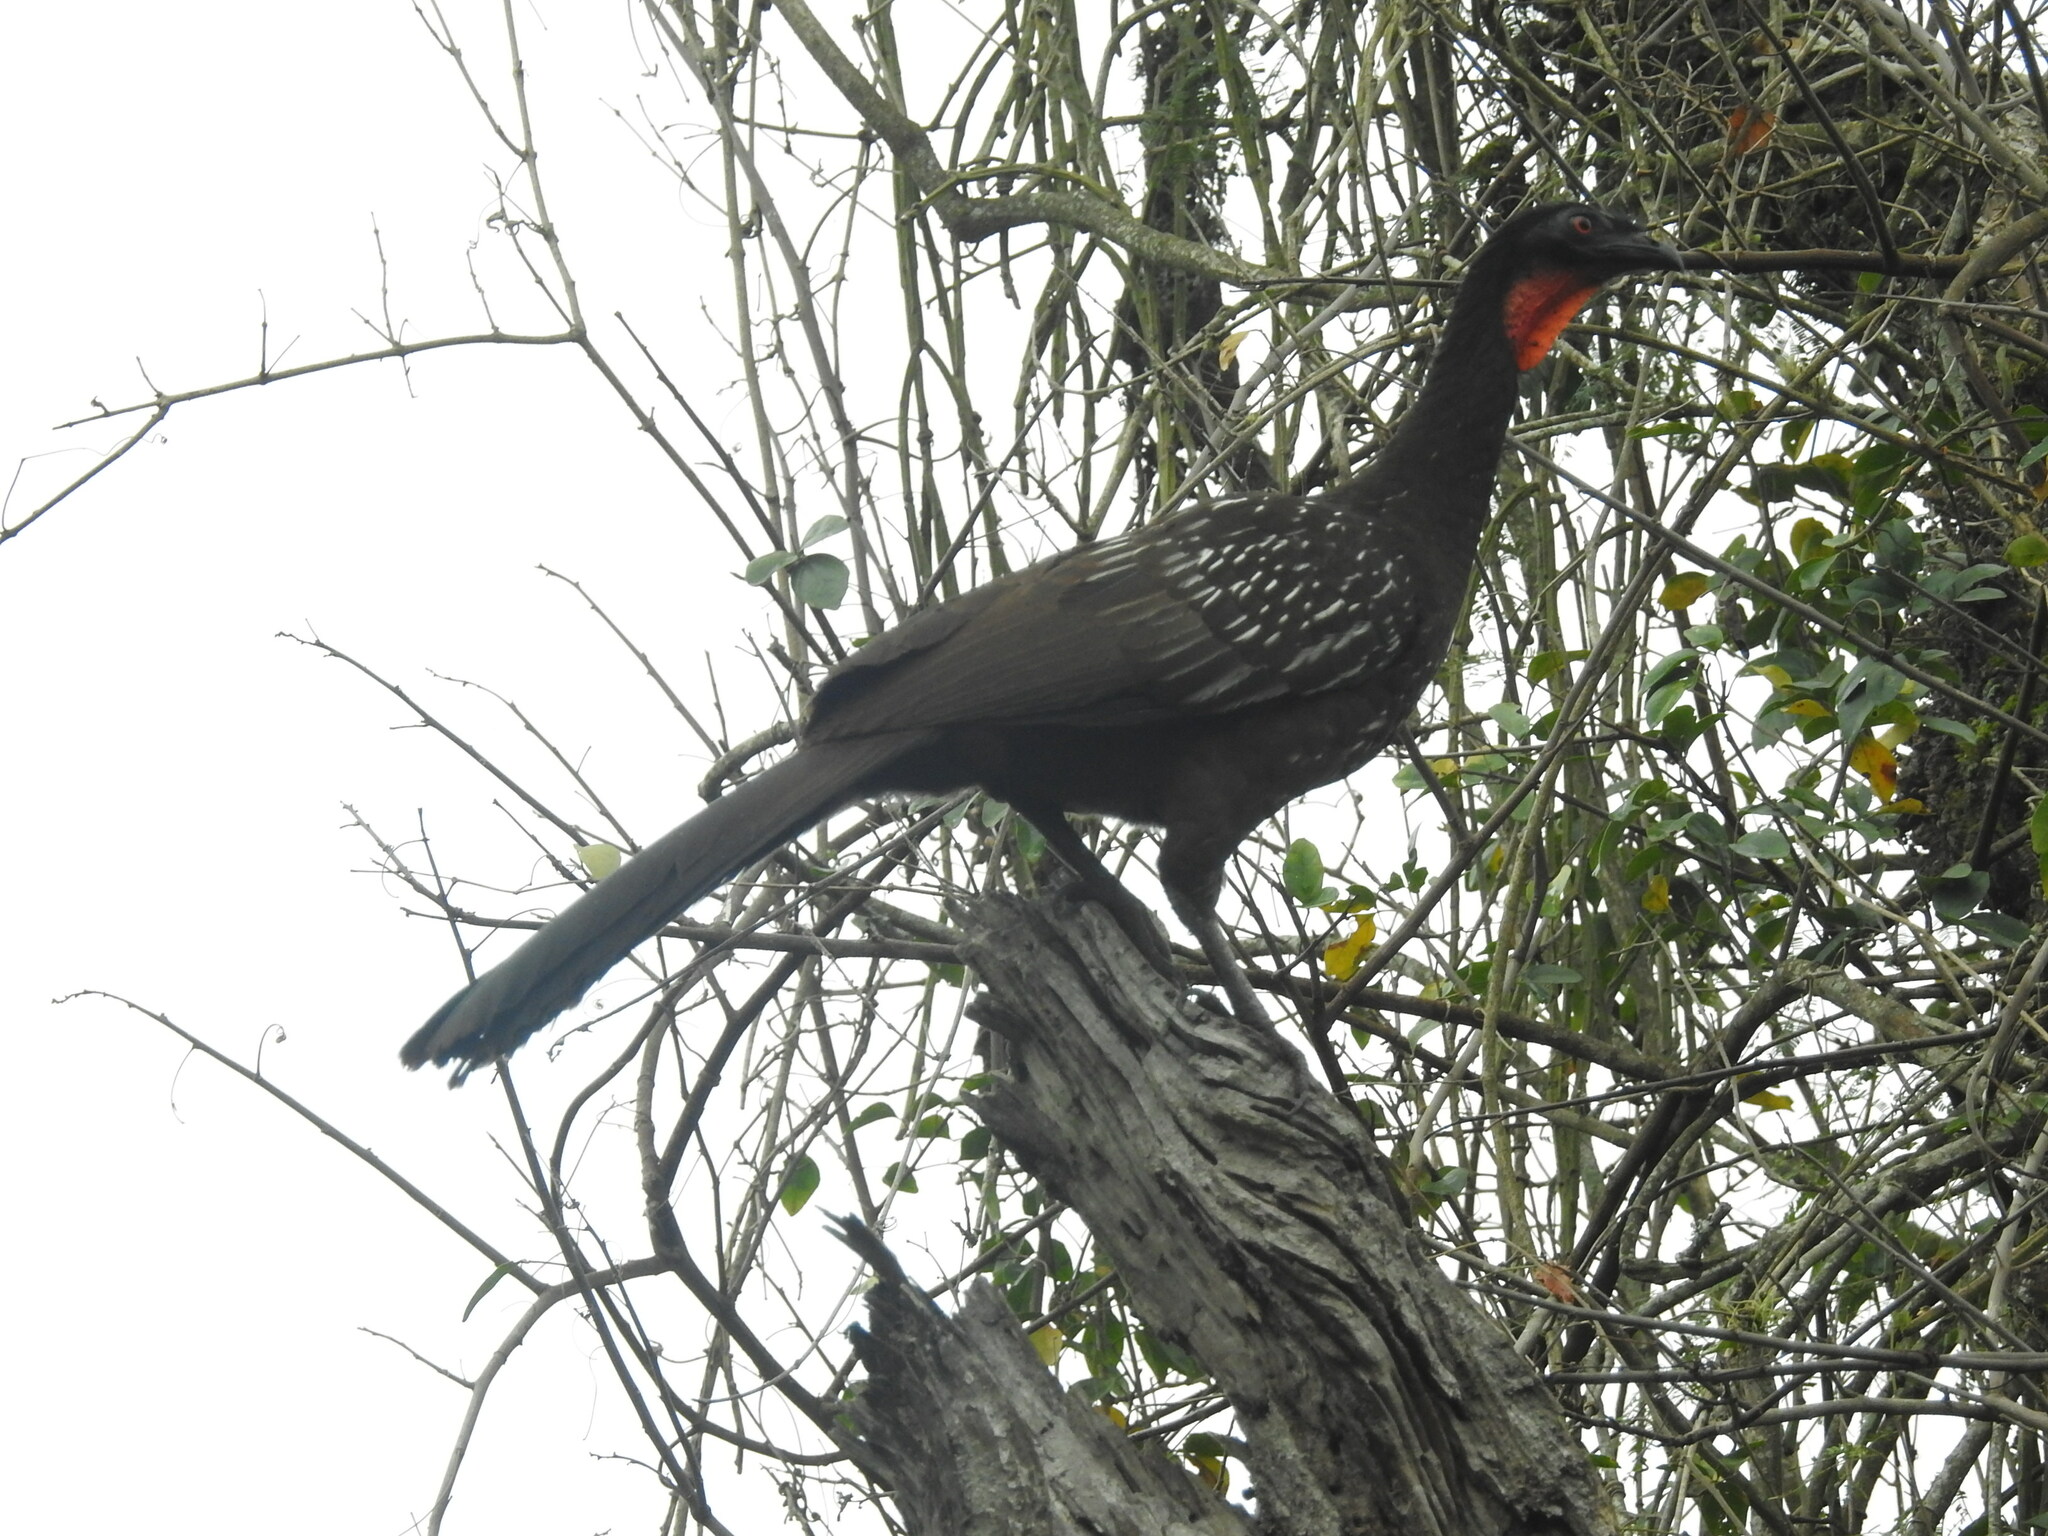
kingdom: Animalia
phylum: Chordata
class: Aves
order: Galliformes
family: Cracidae
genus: Penelope
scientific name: Penelope bridgesi
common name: Yungas guan
